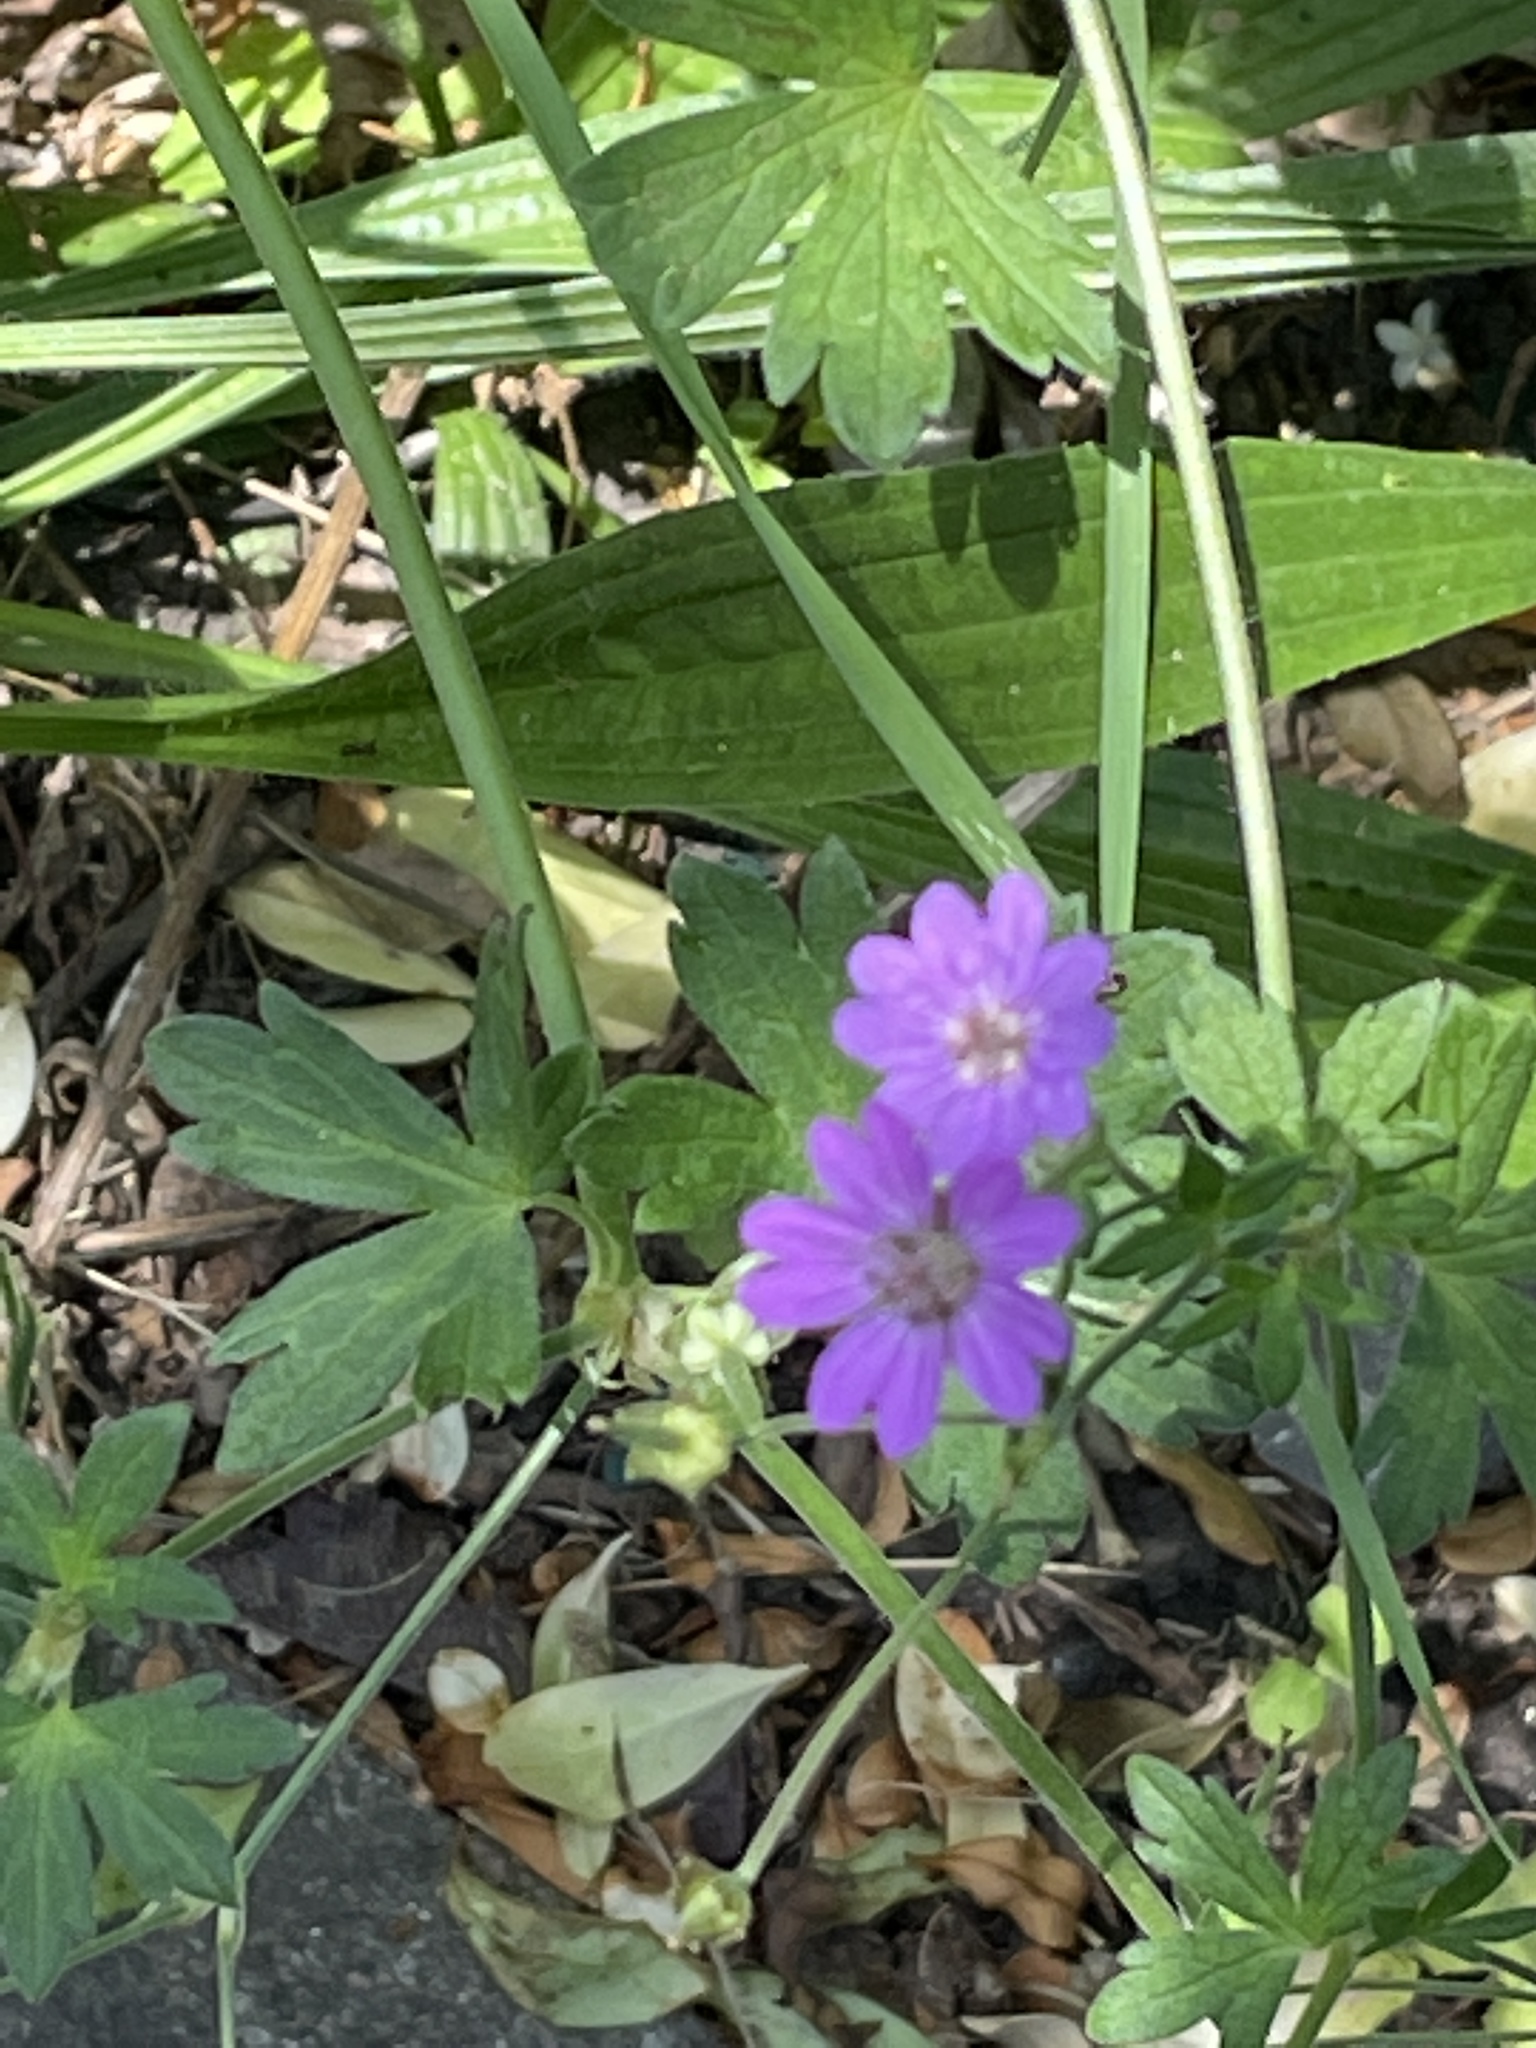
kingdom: Plantae
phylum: Tracheophyta
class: Magnoliopsida
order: Geraniales
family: Geraniaceae
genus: Geranium
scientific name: Geranium pyrenaicum
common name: Hedgerow crane's-bill
